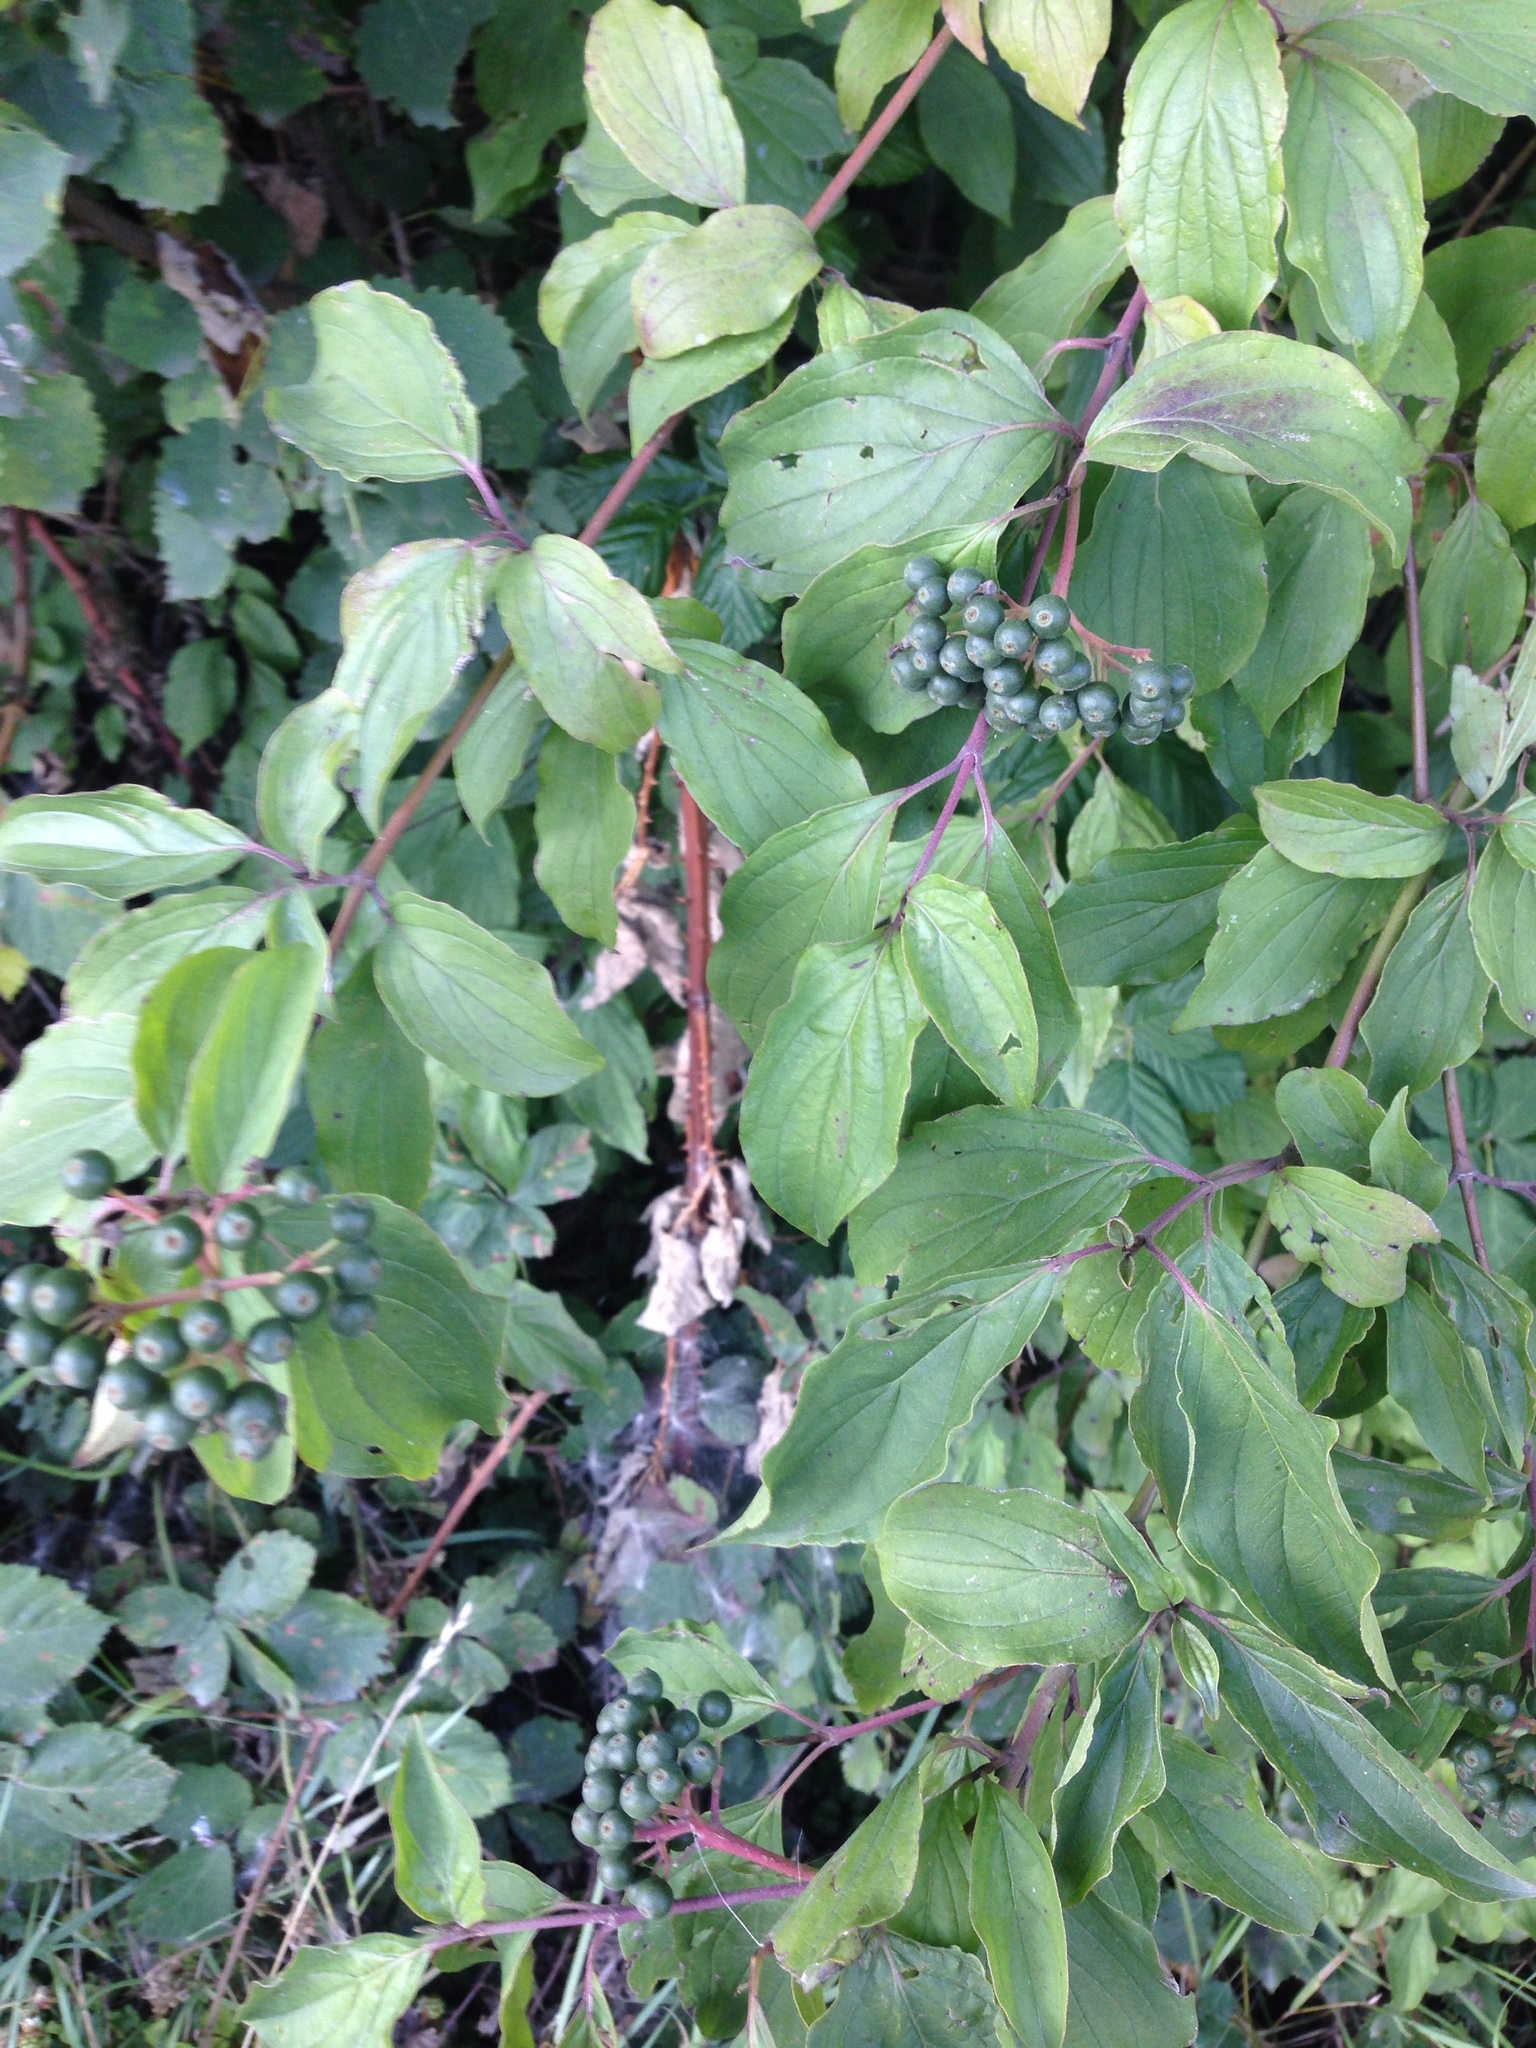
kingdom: Plantae
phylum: Tracheophyta
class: Magnoliopsida
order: Cornales
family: Cornaceae
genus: Cornus
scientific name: Cornus sanguinea
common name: Dogwood
